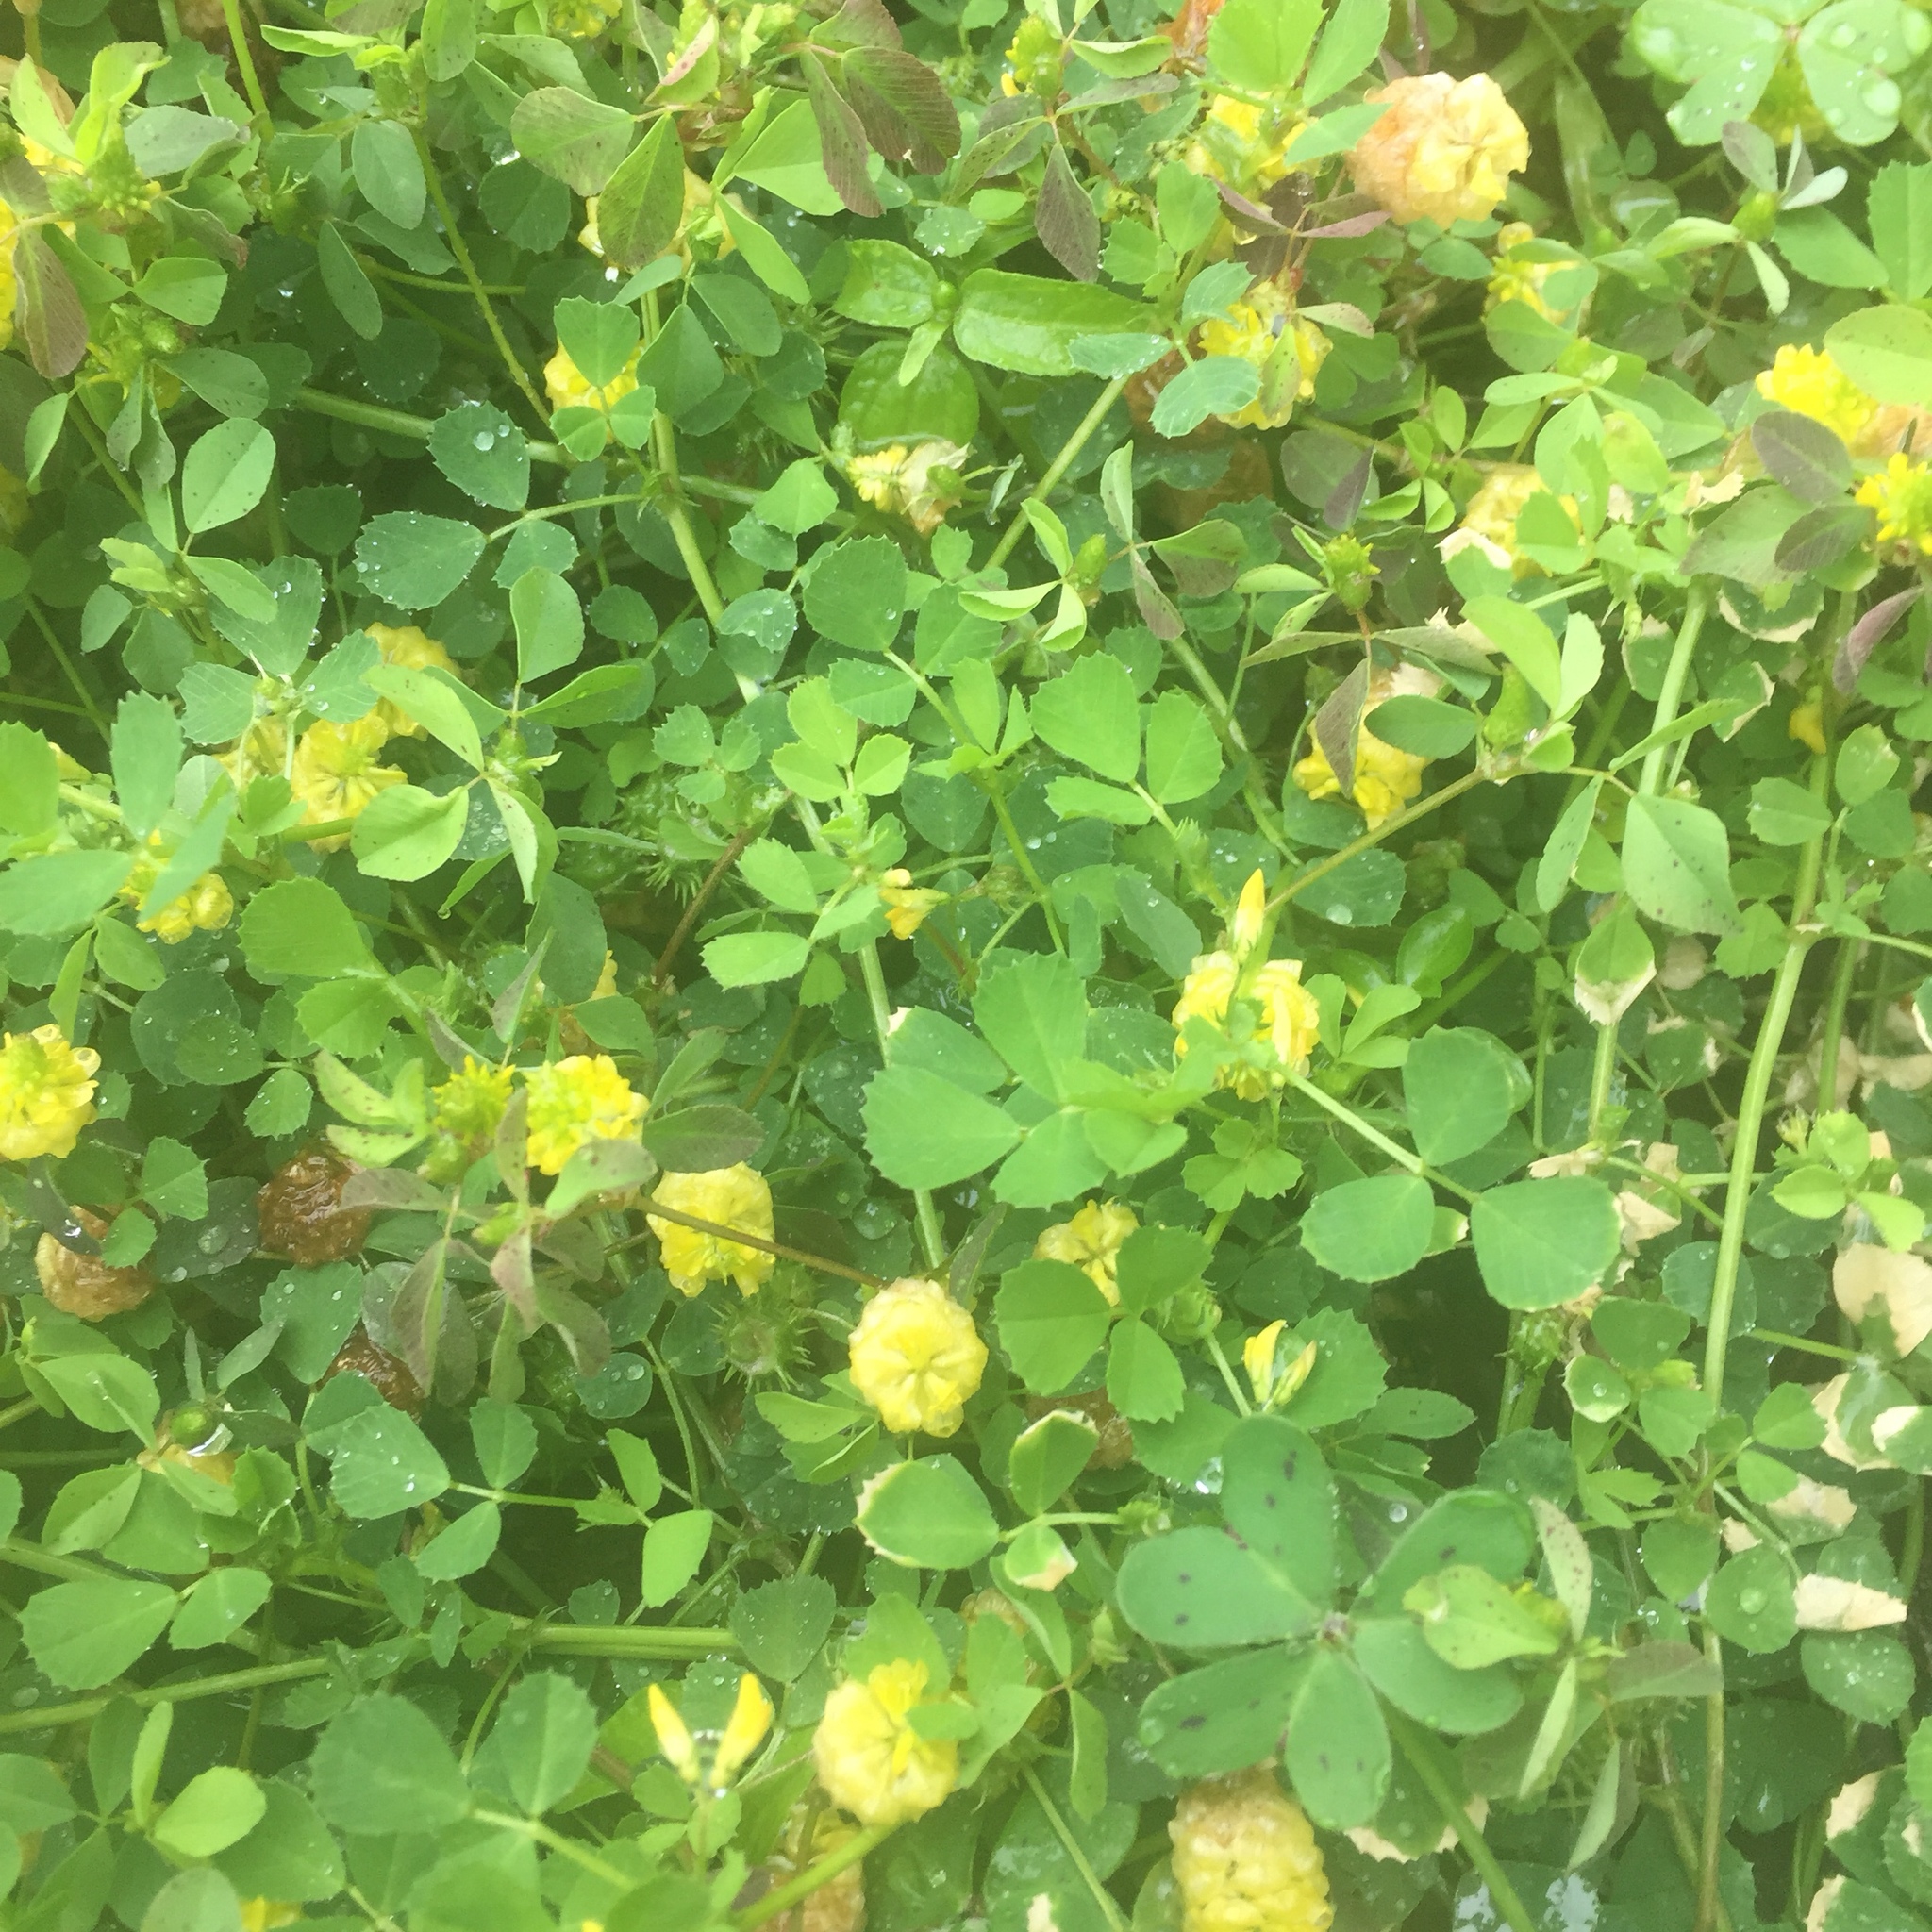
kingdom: Plantae
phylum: Tracheophyta
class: Magnoliopsida
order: Fabales
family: Fabaceae
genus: Trifolium
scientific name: Trifolium campestre
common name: Field clover
